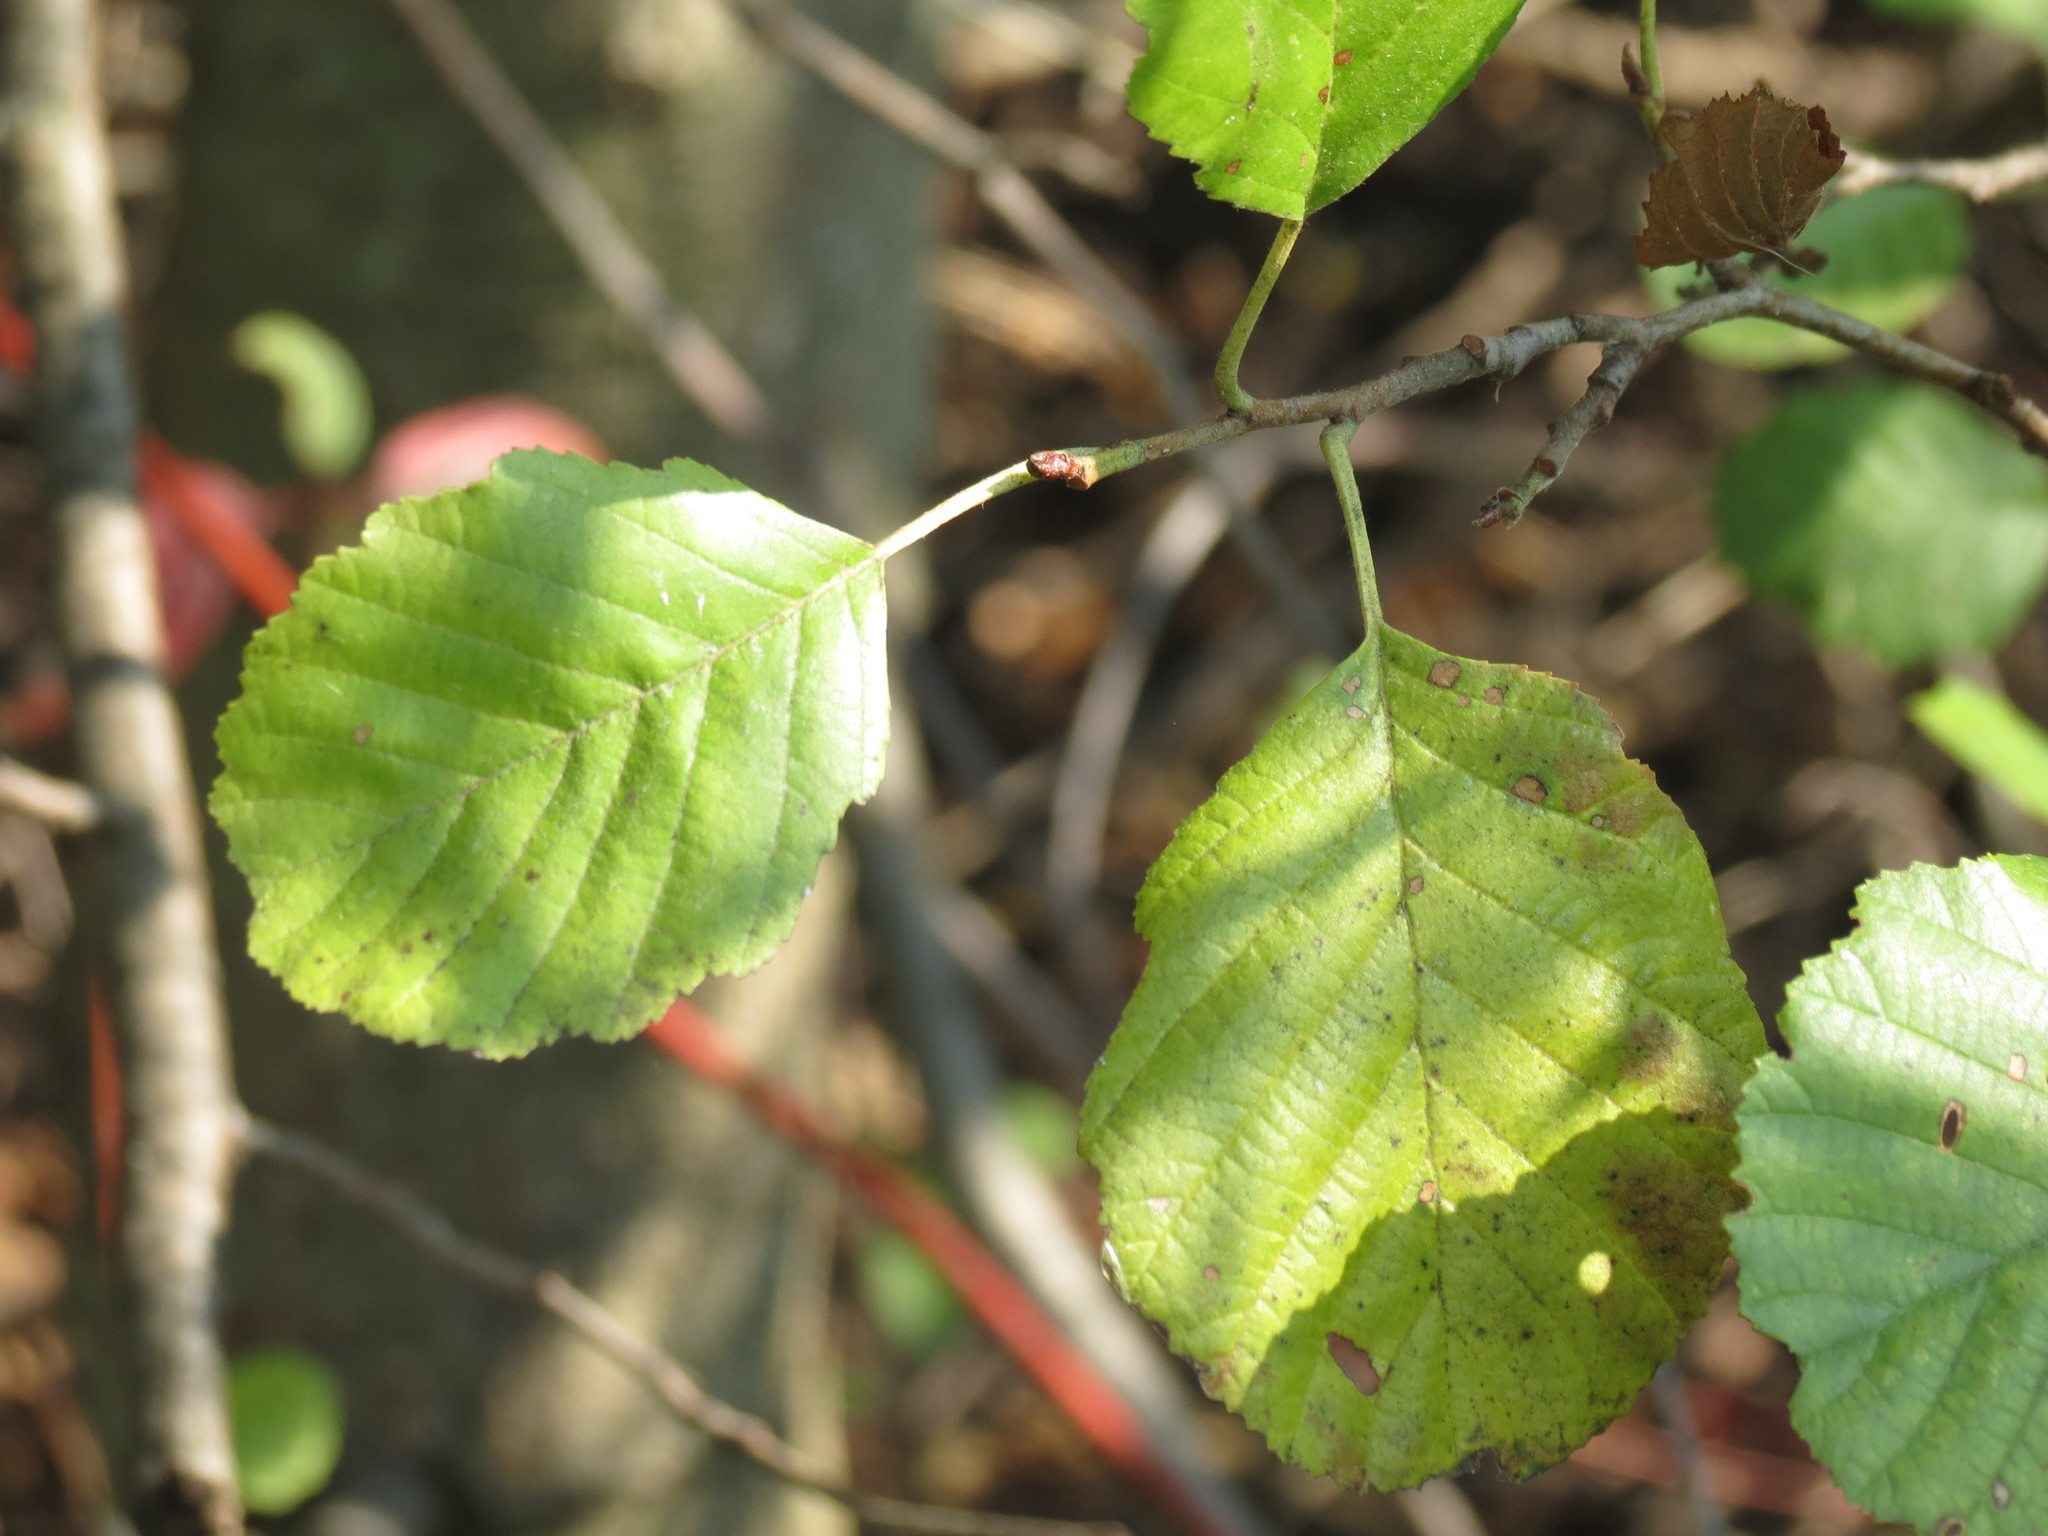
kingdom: Plantae
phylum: Tracheophyta
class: Magnoliopsida
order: Fagales
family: Betulaceae
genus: Alnus
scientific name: Alnus glutinosa
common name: Black alder
